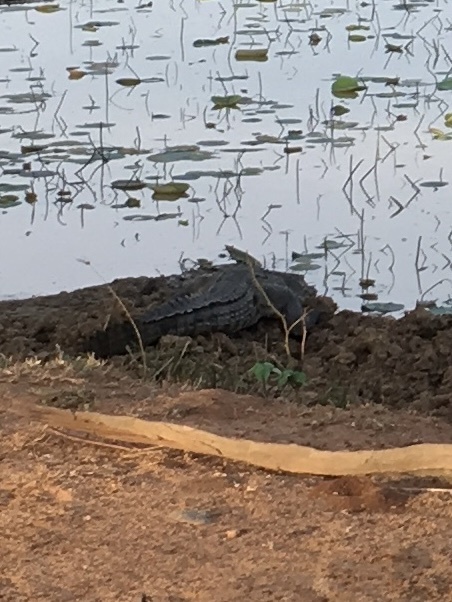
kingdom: Animalia
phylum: Chordata
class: Crocodylia
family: Crocodylidae
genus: Crocodylus
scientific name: Crocodylus palustris
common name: Mugger crocodile
